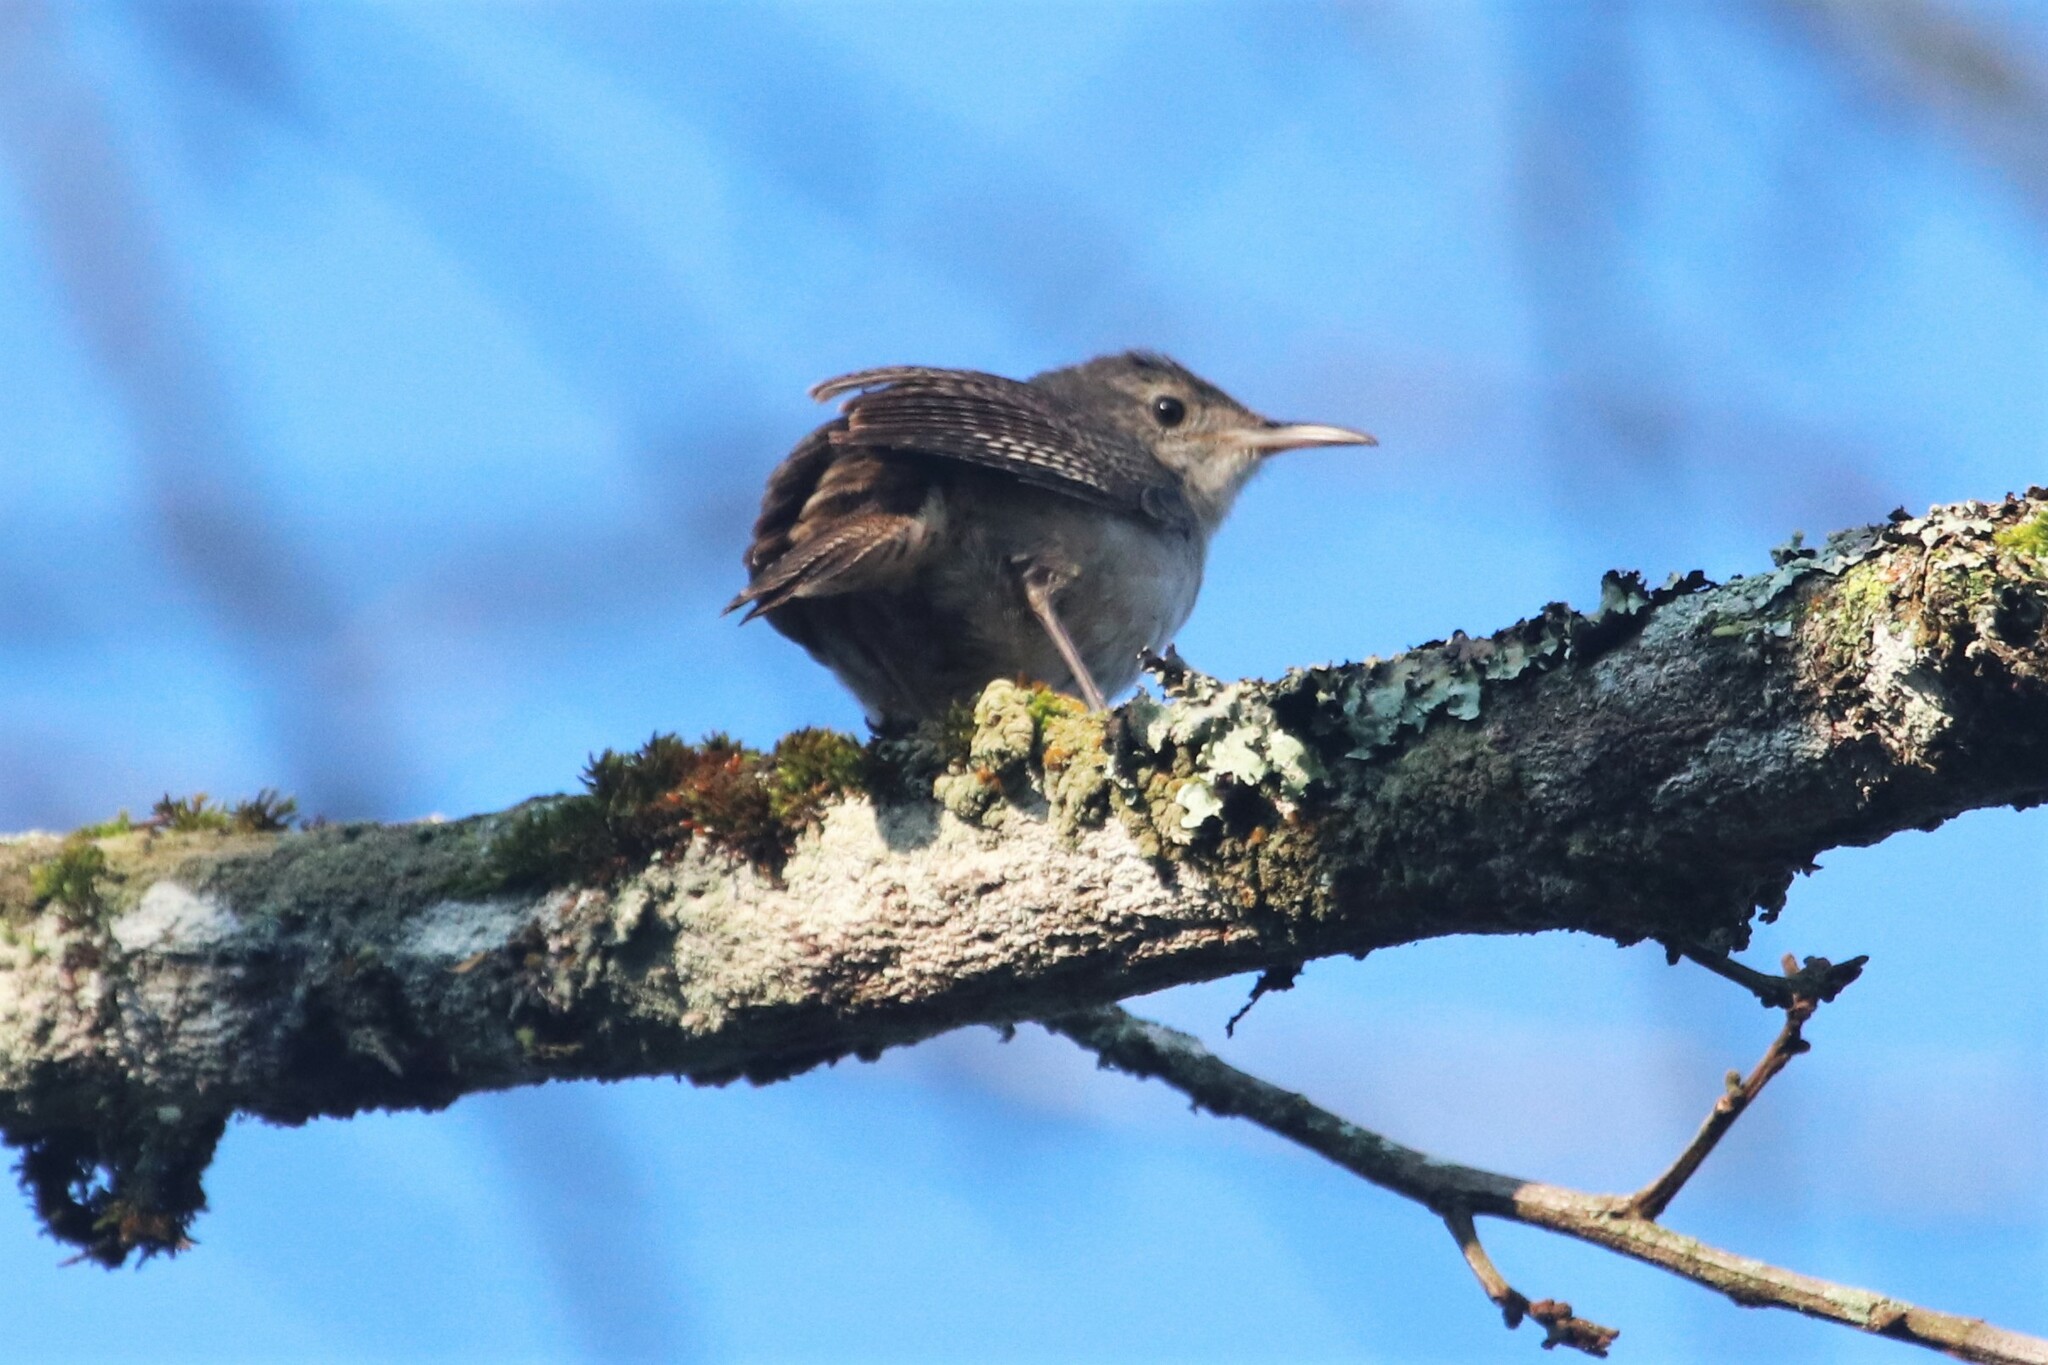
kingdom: Animalia
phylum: Chordata
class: Aves
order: Passeriformes
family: Troglodytidae
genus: Troglodytes
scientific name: Troglodytes aedon
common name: House wren
